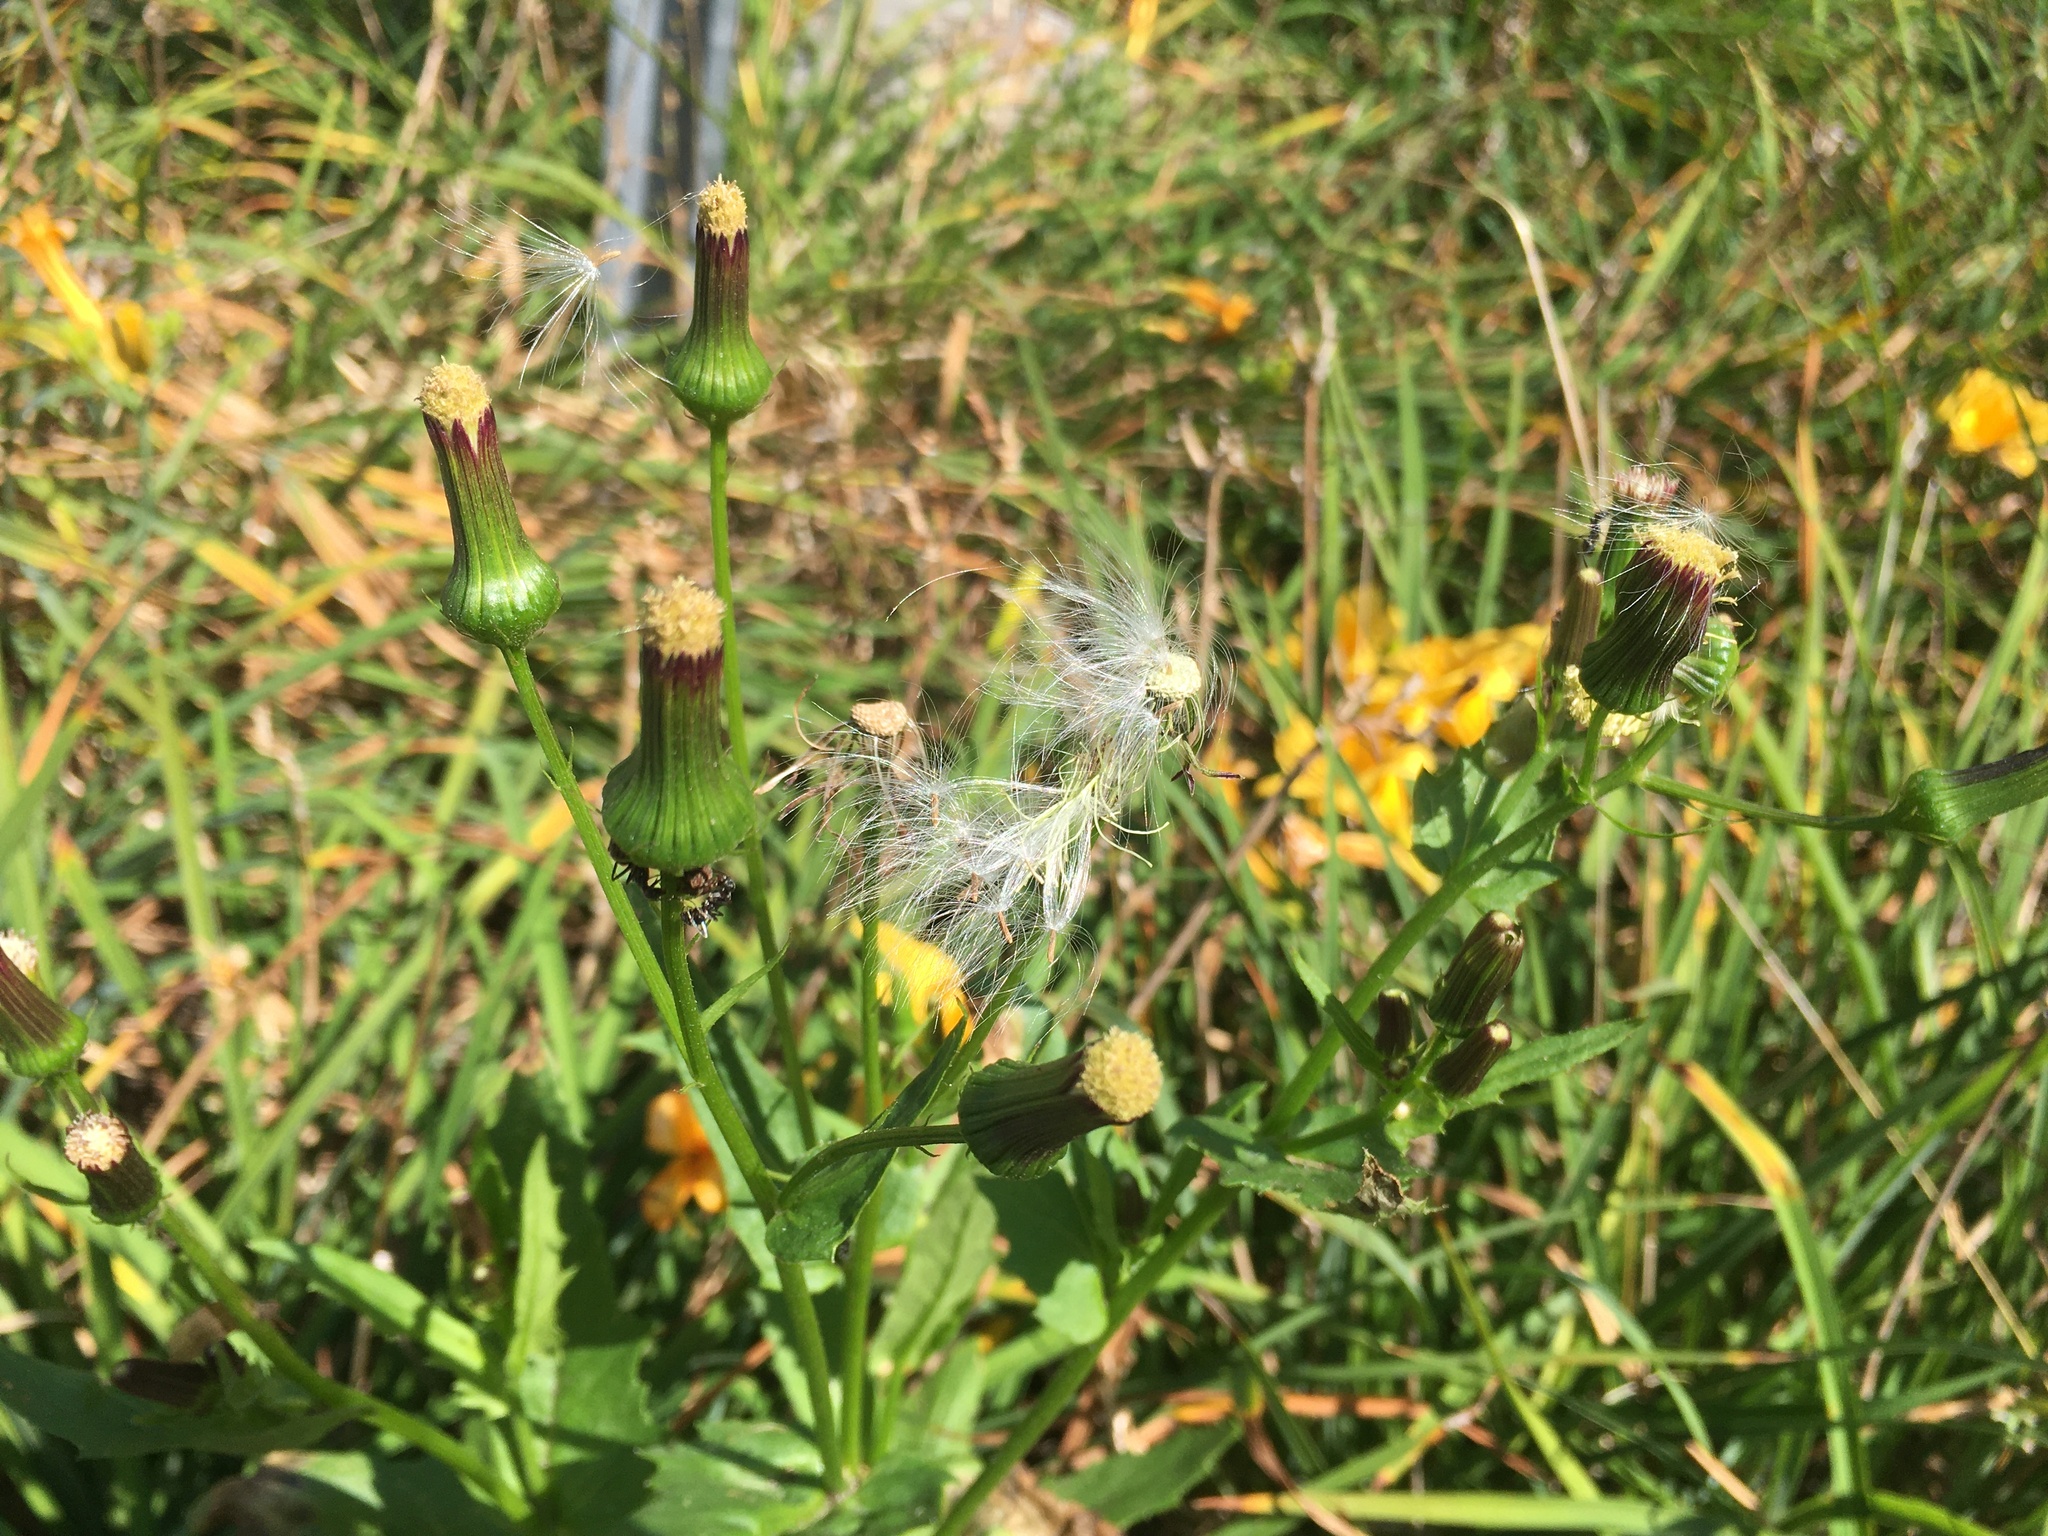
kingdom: Plantae
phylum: Tracheophyta
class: Magnoliopsida
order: Asterales
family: Asteraceae
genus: Erechtites
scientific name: Erechtites hieraciifolius
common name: American burnweed
